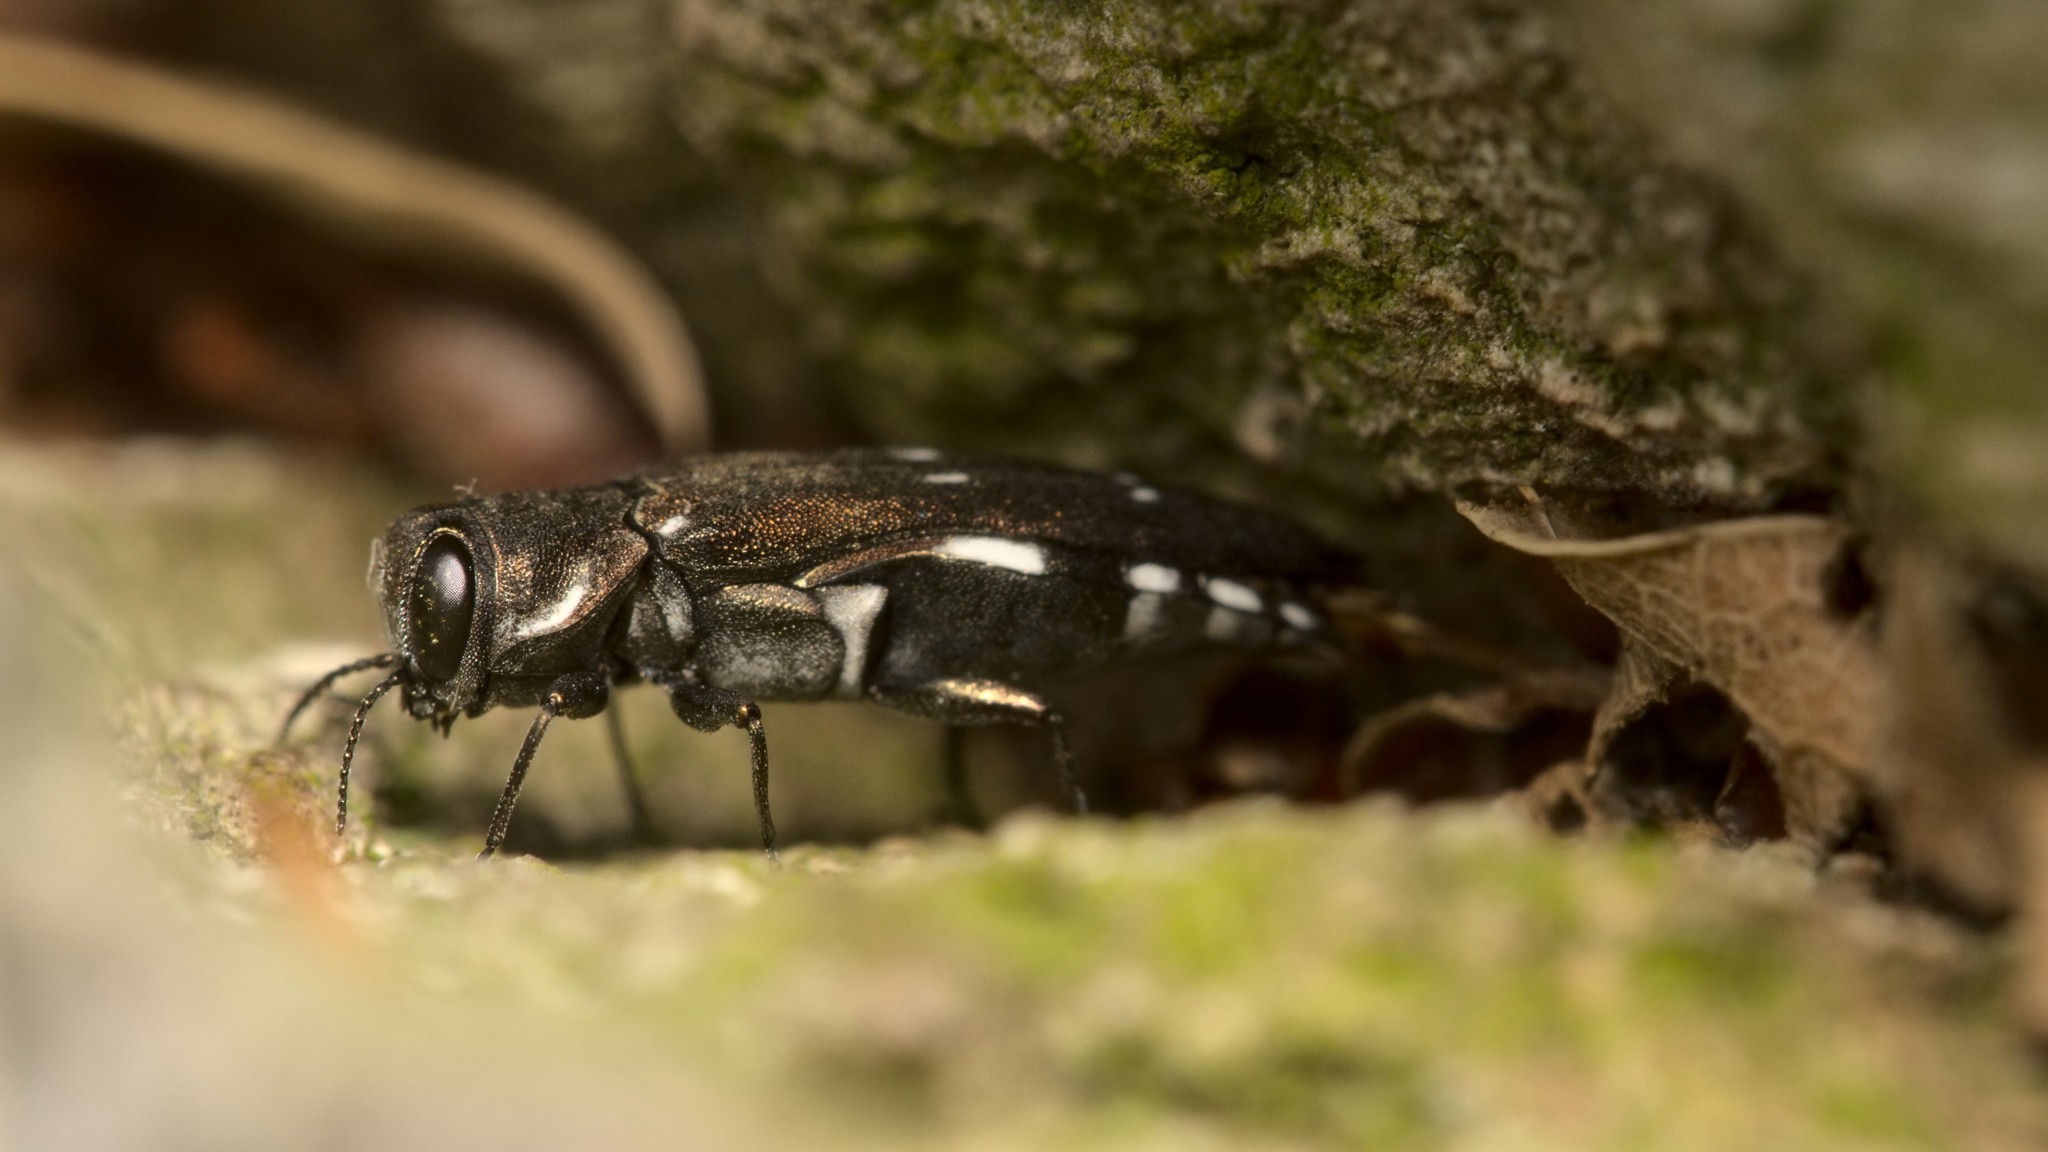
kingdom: Animalia
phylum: Arthropoda
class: Insecta
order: Coleoptera
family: Buprestidae
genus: Agrilus
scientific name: Agrilus ater
